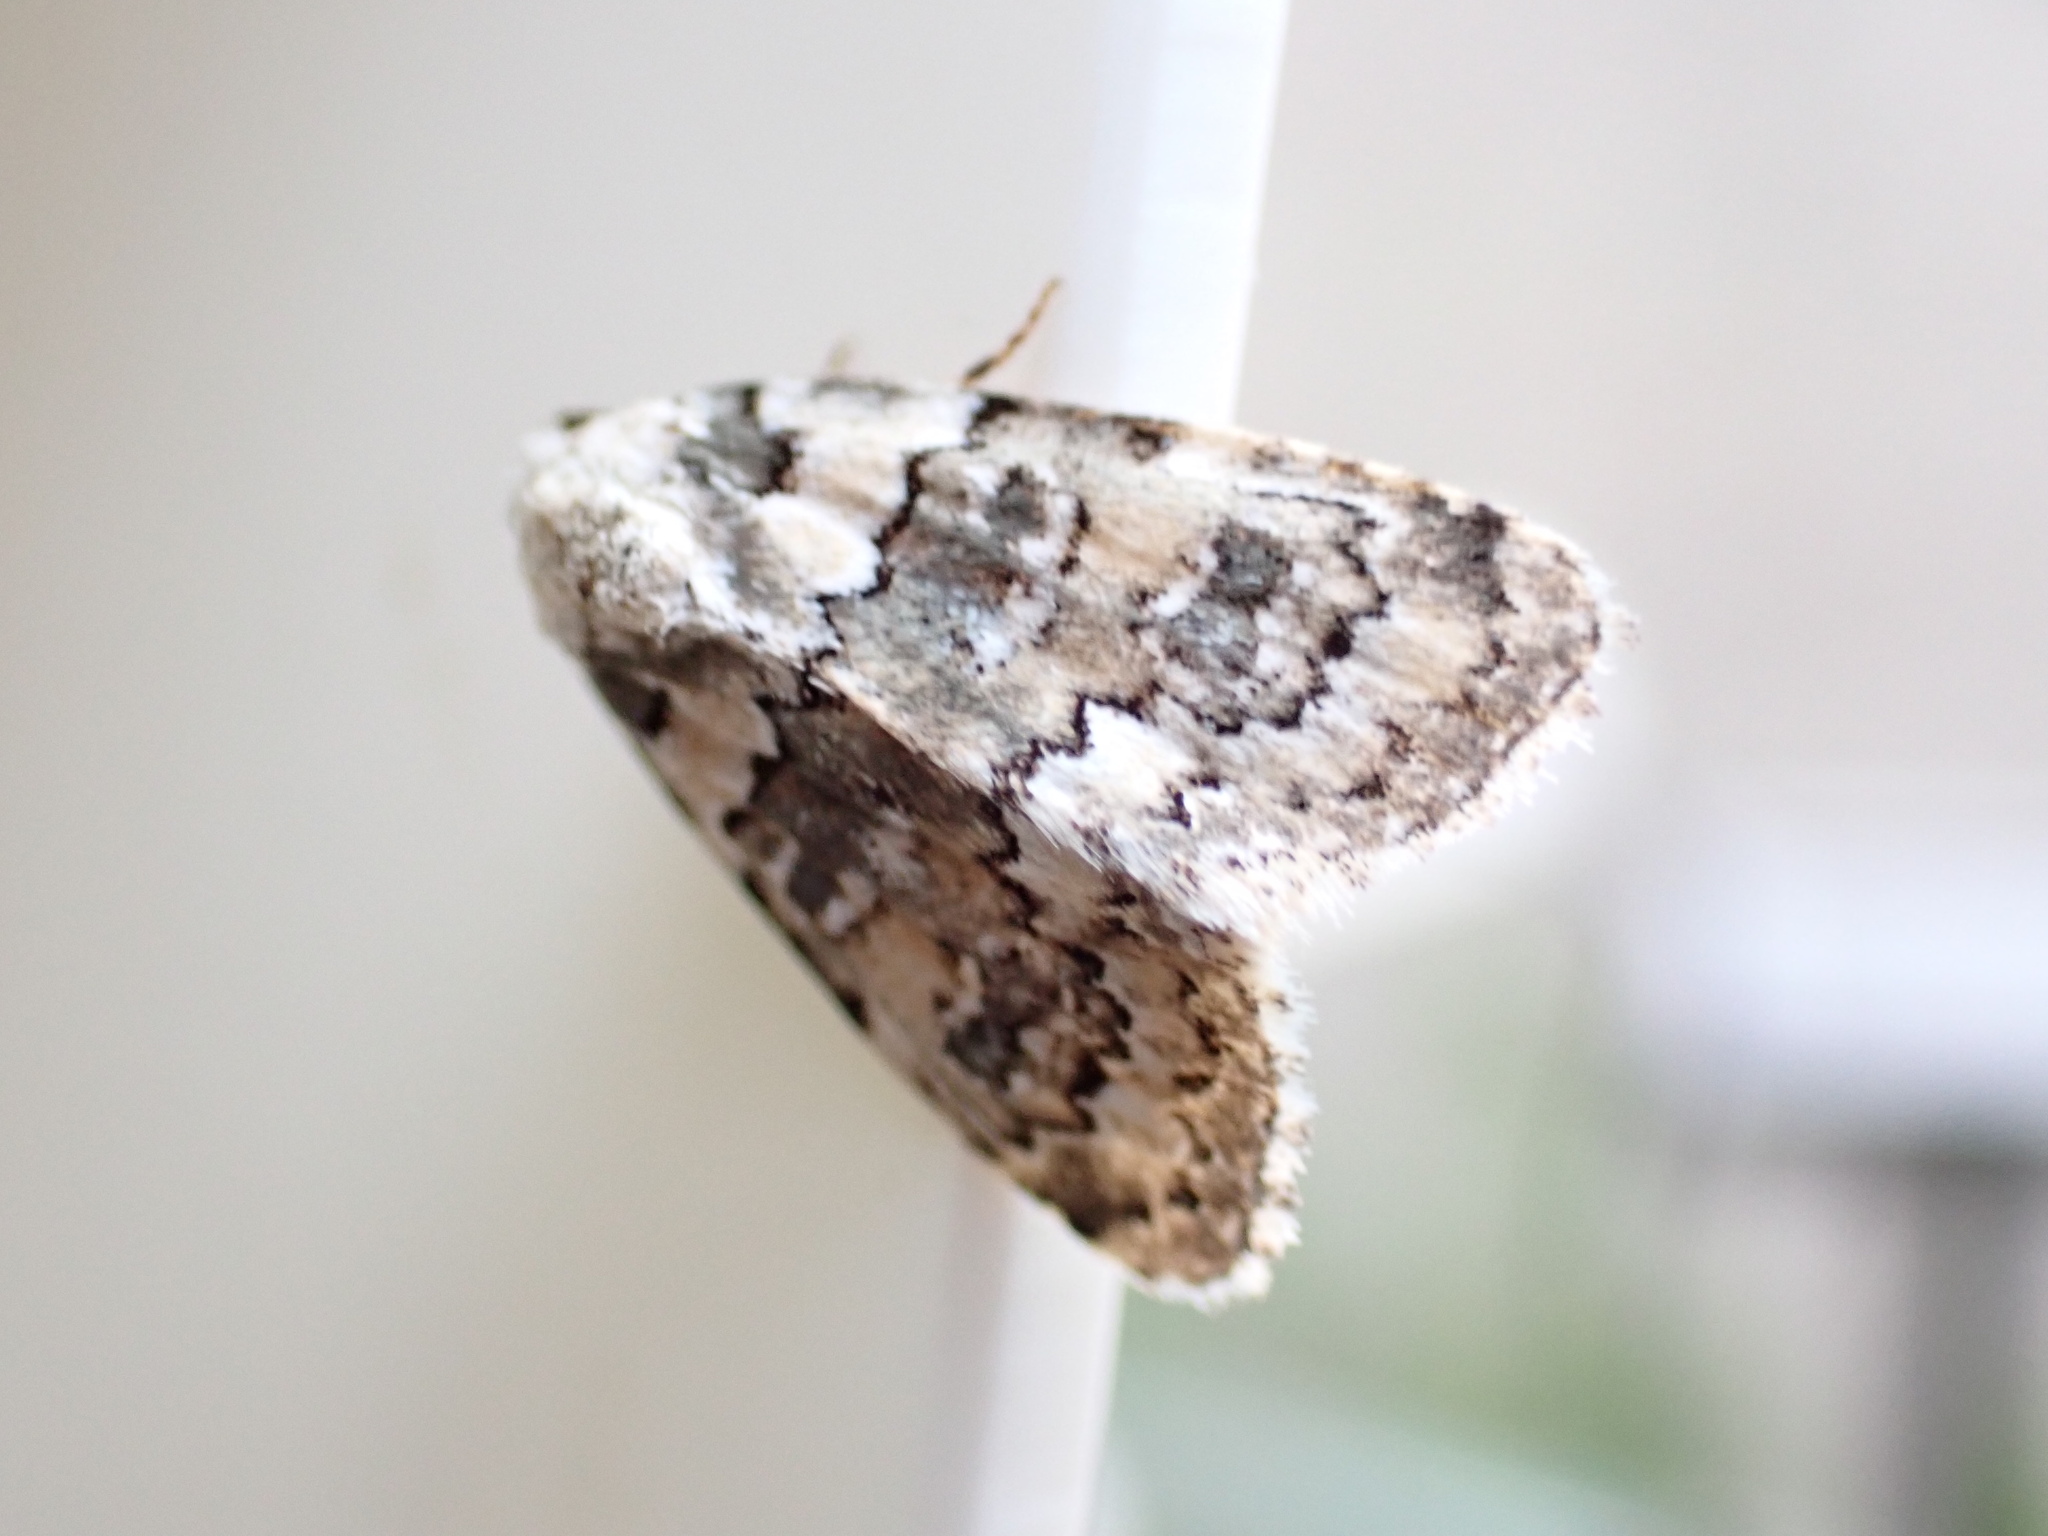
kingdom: Animalia
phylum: Arthropoda
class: Insecta
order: Lepidoptera
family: Noctuidae
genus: Bryophila
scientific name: Bryophila domestica
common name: Marbled beauty
